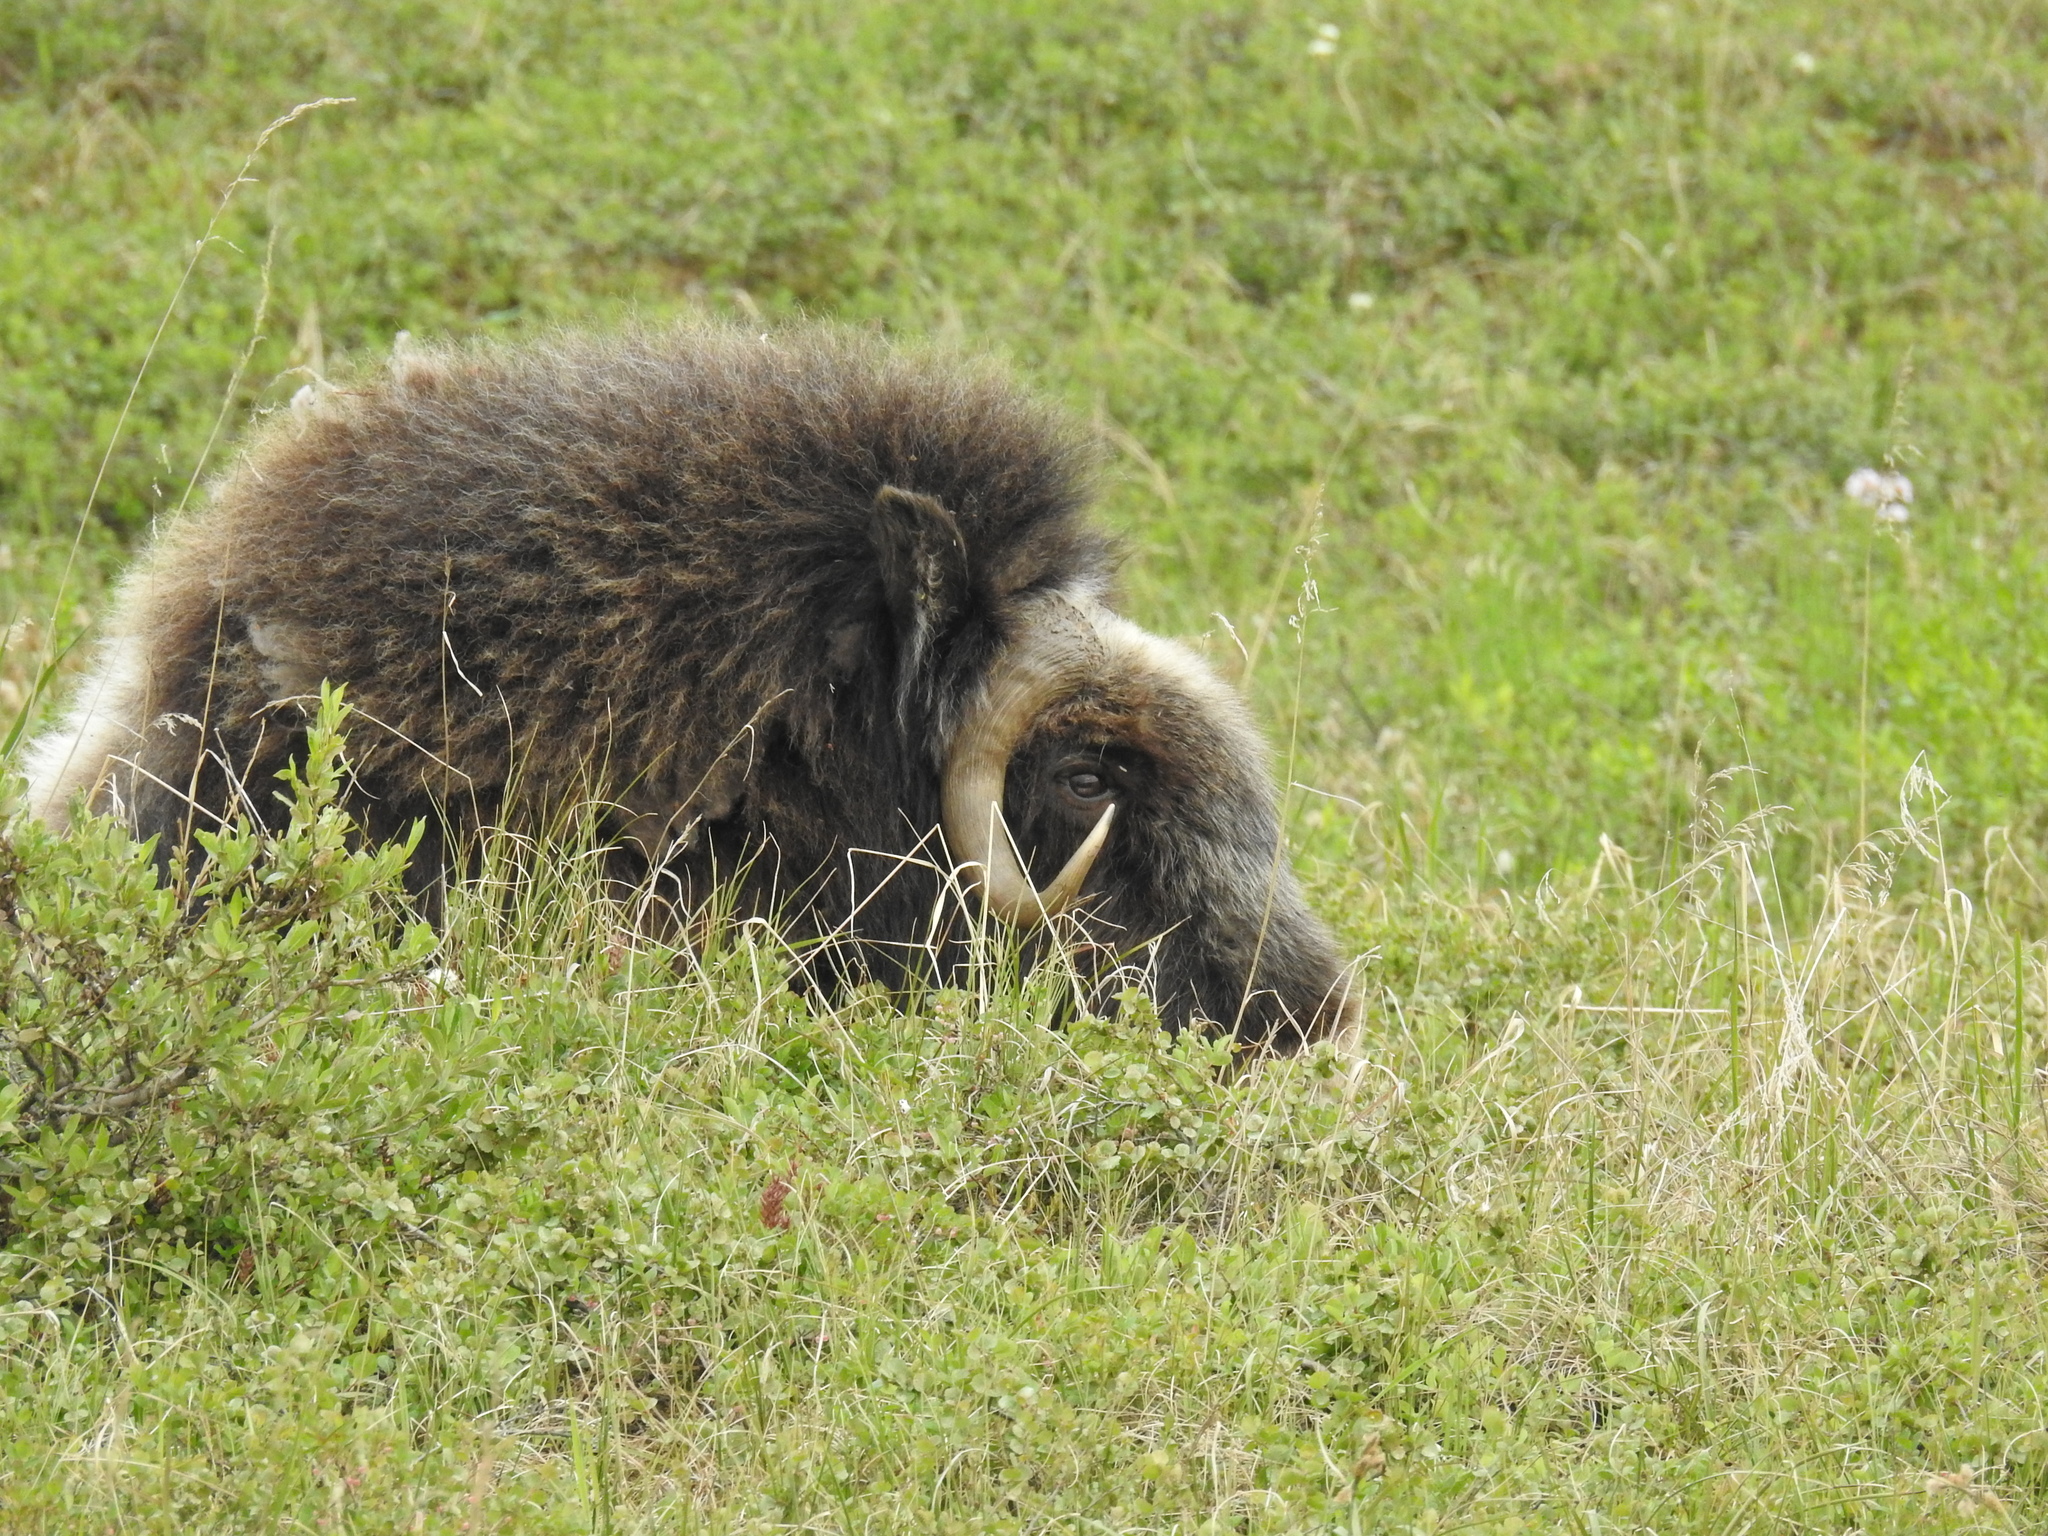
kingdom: Animalia
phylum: Chordata
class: Mammalia
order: Artiodactyla
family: Bovidae
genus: Ovibos
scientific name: Ovibos moschatus
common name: Muskox
